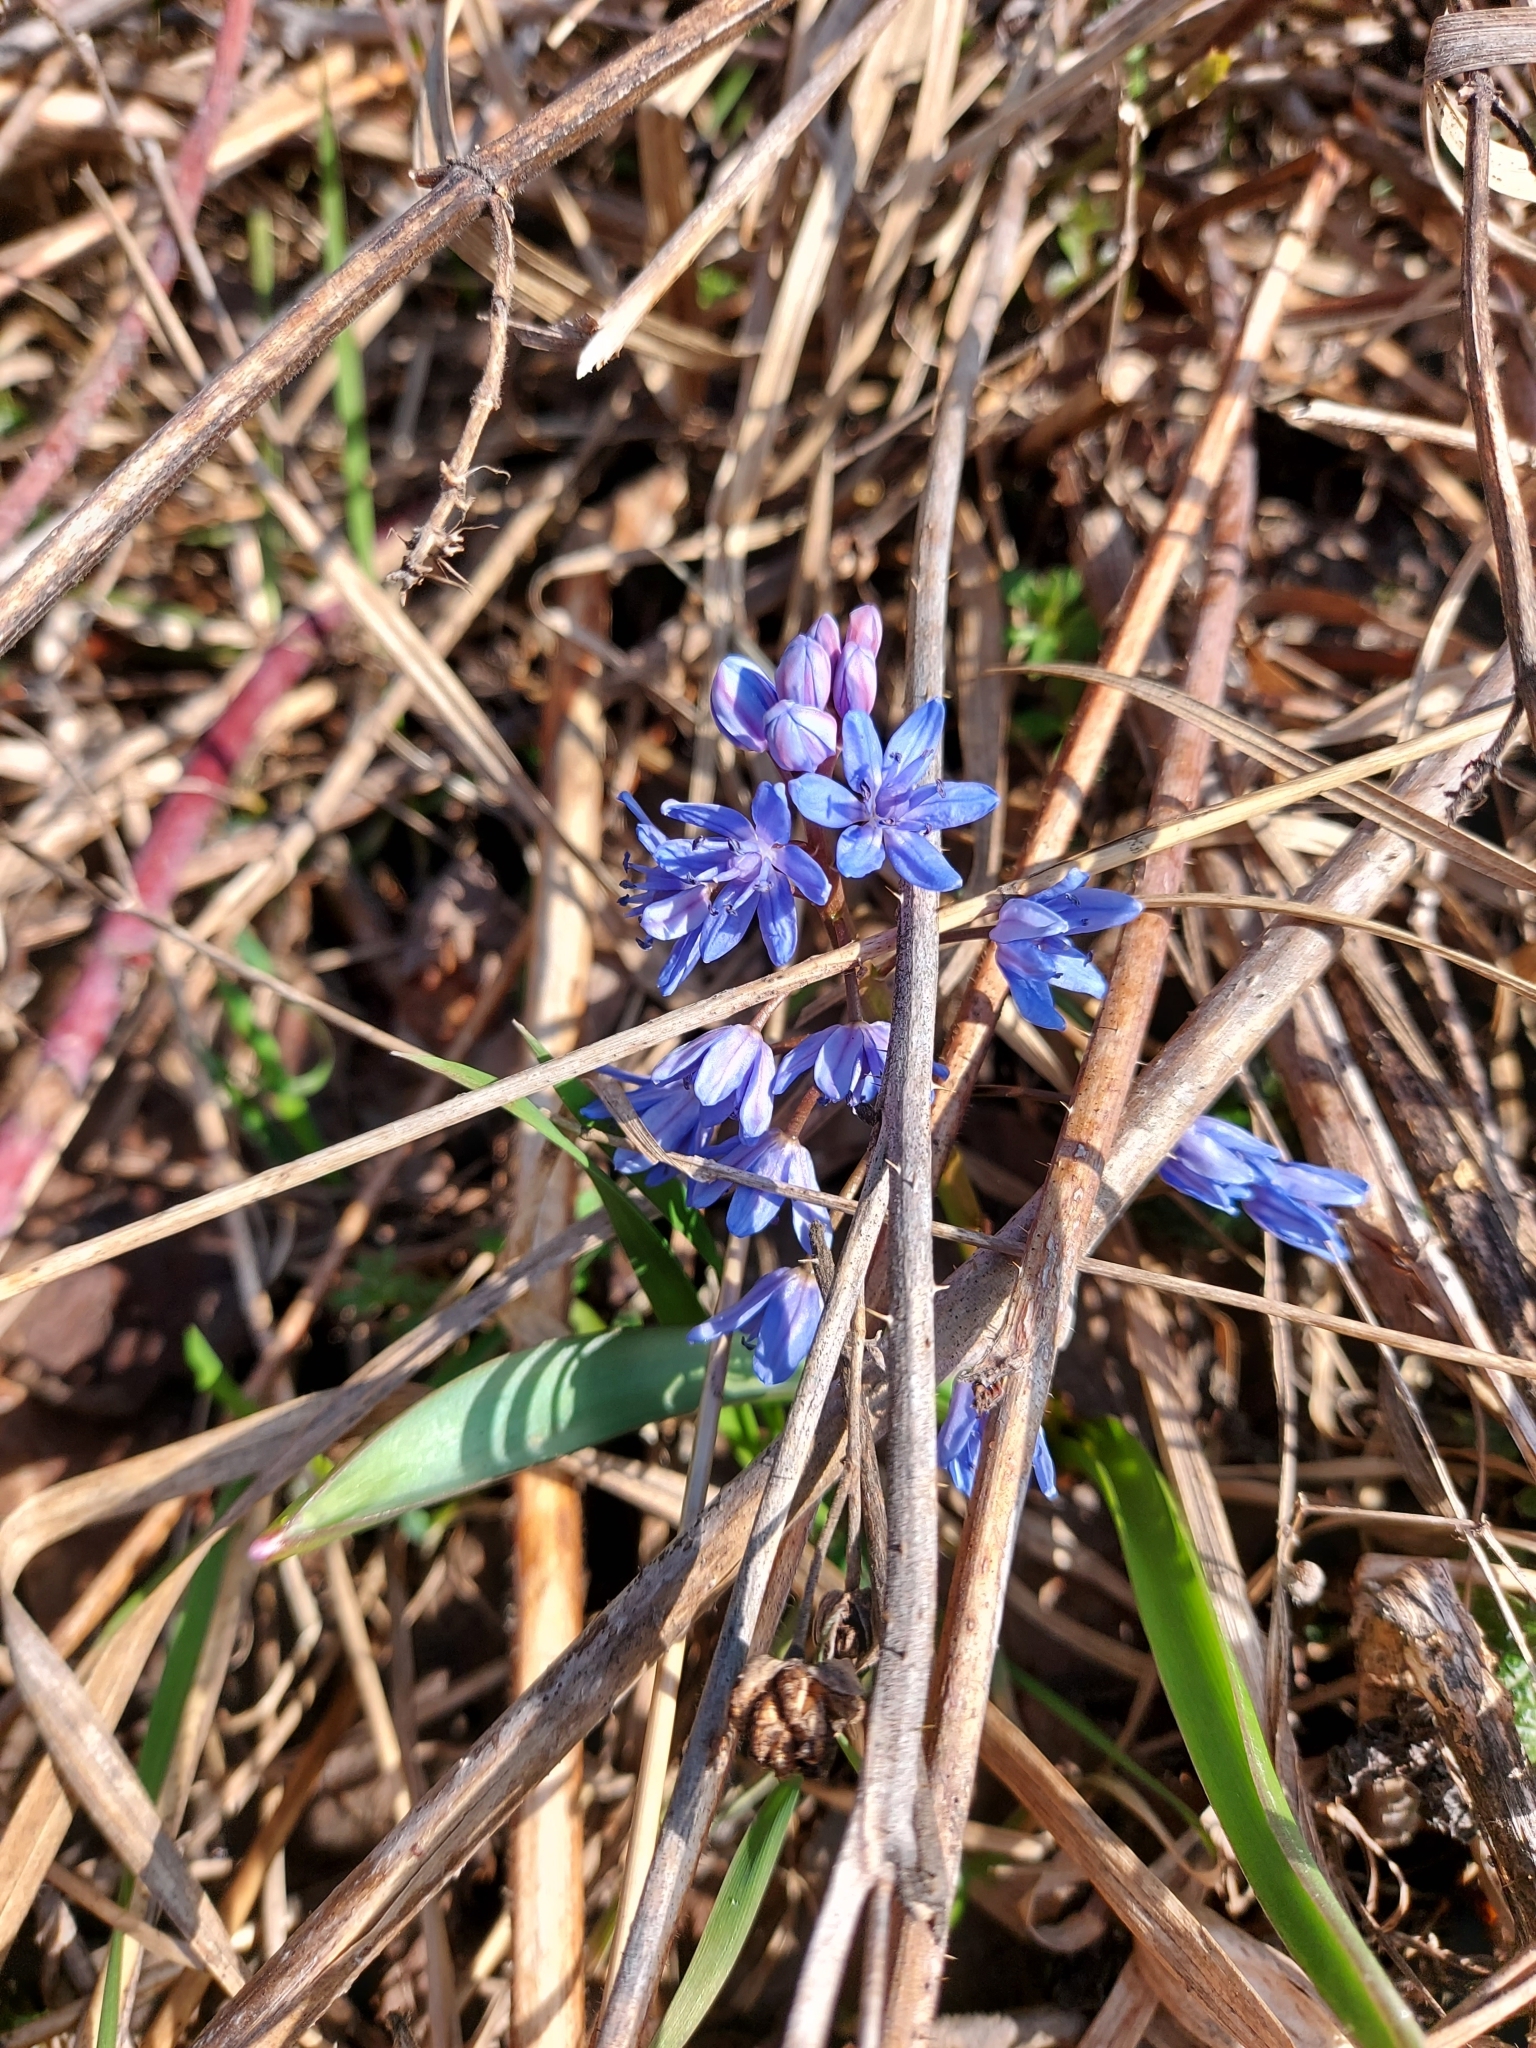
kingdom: Plantae
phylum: Tracheophyta
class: Liliopsida
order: Asparagales
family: Asparagaceae
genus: Scilla
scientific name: Scilla bifolia
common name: Alpine squill
